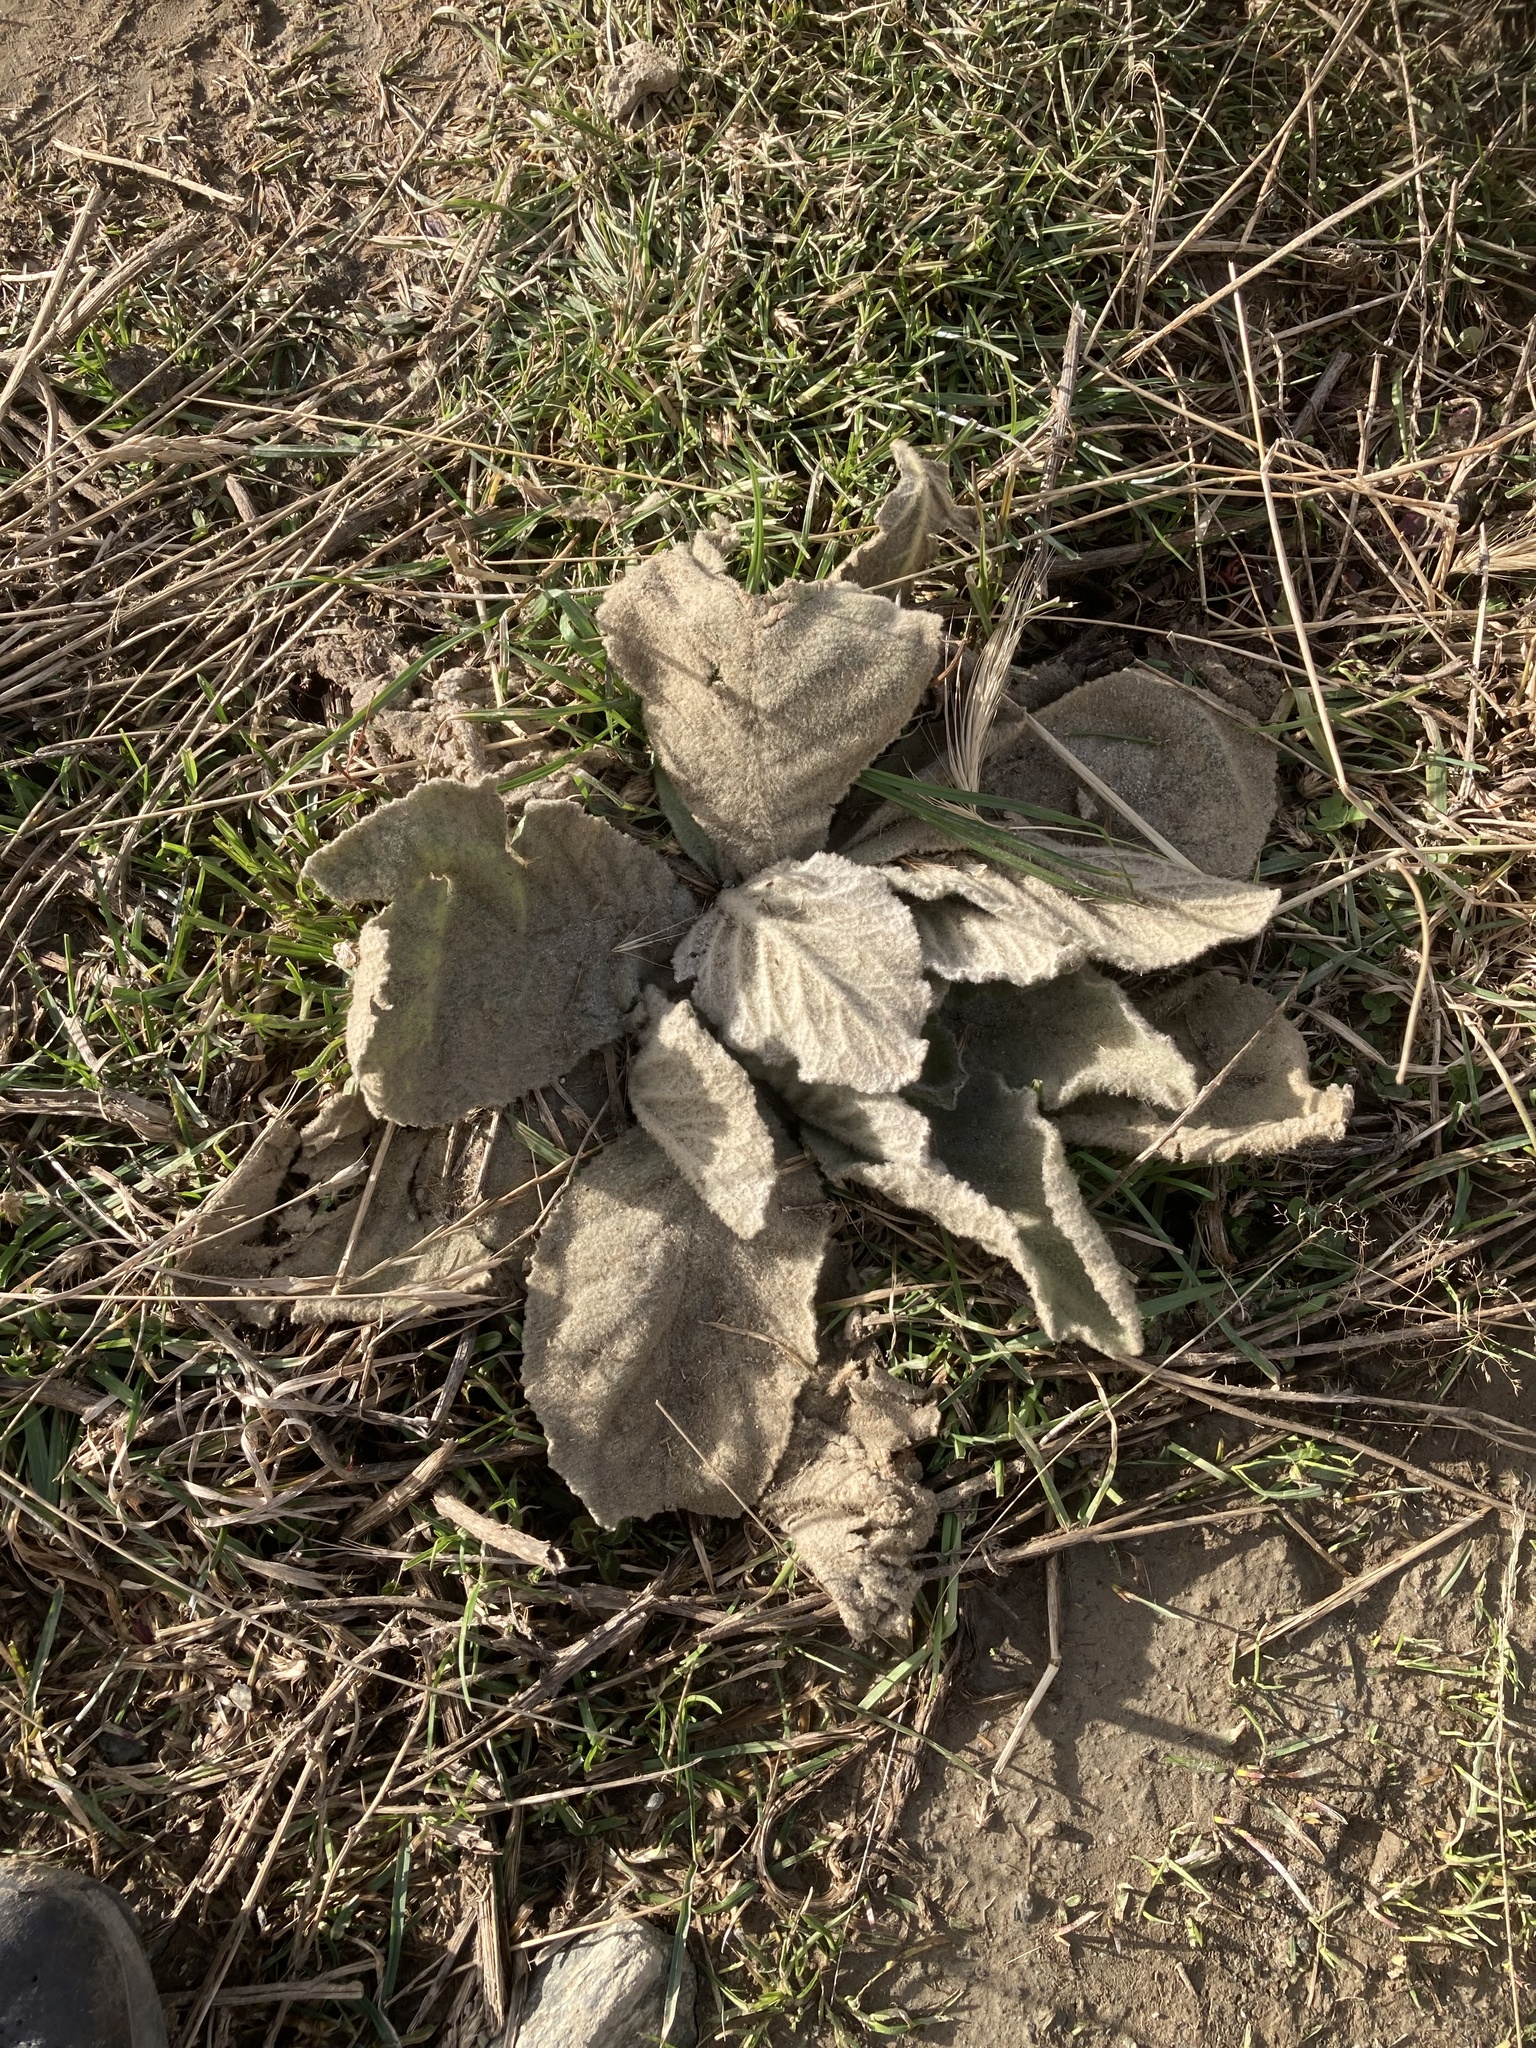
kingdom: Plantae
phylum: Tracheophyta
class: Magnoliopsida
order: Lamiales
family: Scrophulariaceae
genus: Verbascum
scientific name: Verbascum thapsus
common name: Common mullein
